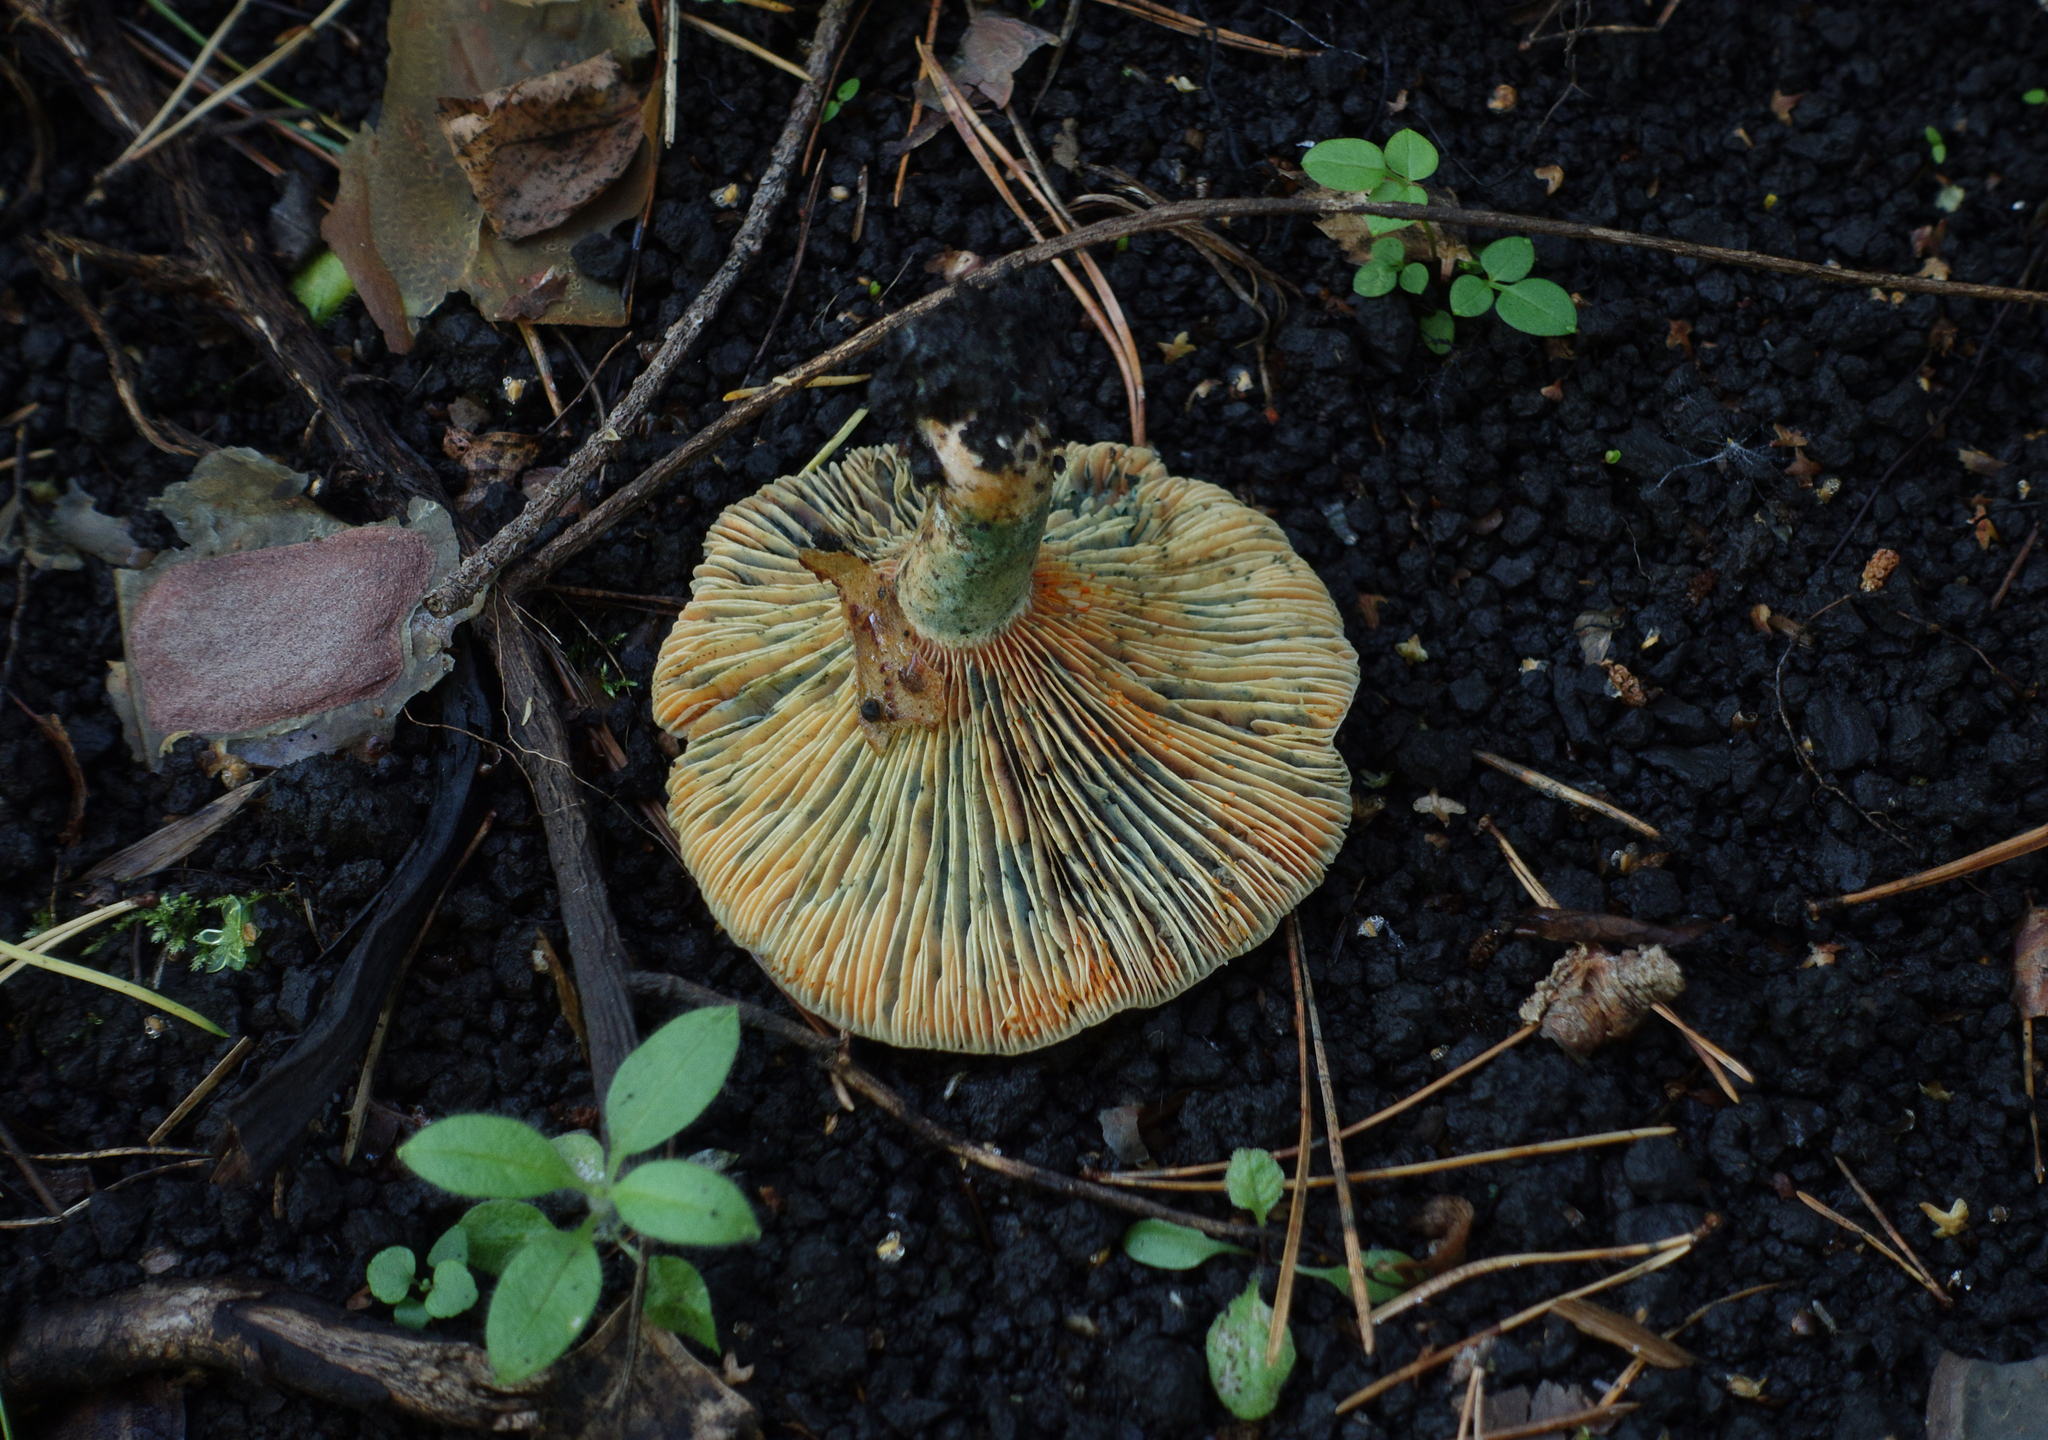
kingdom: Fungi
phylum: Basidiomycota
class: Agaricomycetes
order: Russulales
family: Russulaceae
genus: Lactarius
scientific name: Lactarius deterrimus
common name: False saffron milkcap
